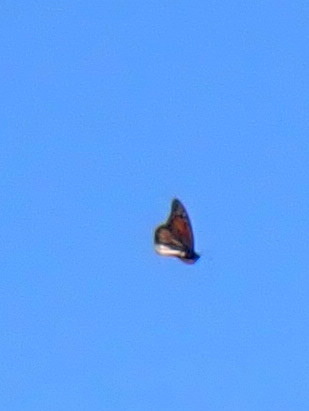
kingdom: Animalia
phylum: Arthropoda
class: Insecta
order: Lepidoptera
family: Nymphalidae
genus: Danaus
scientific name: Danaus plexippus
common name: Monarch
